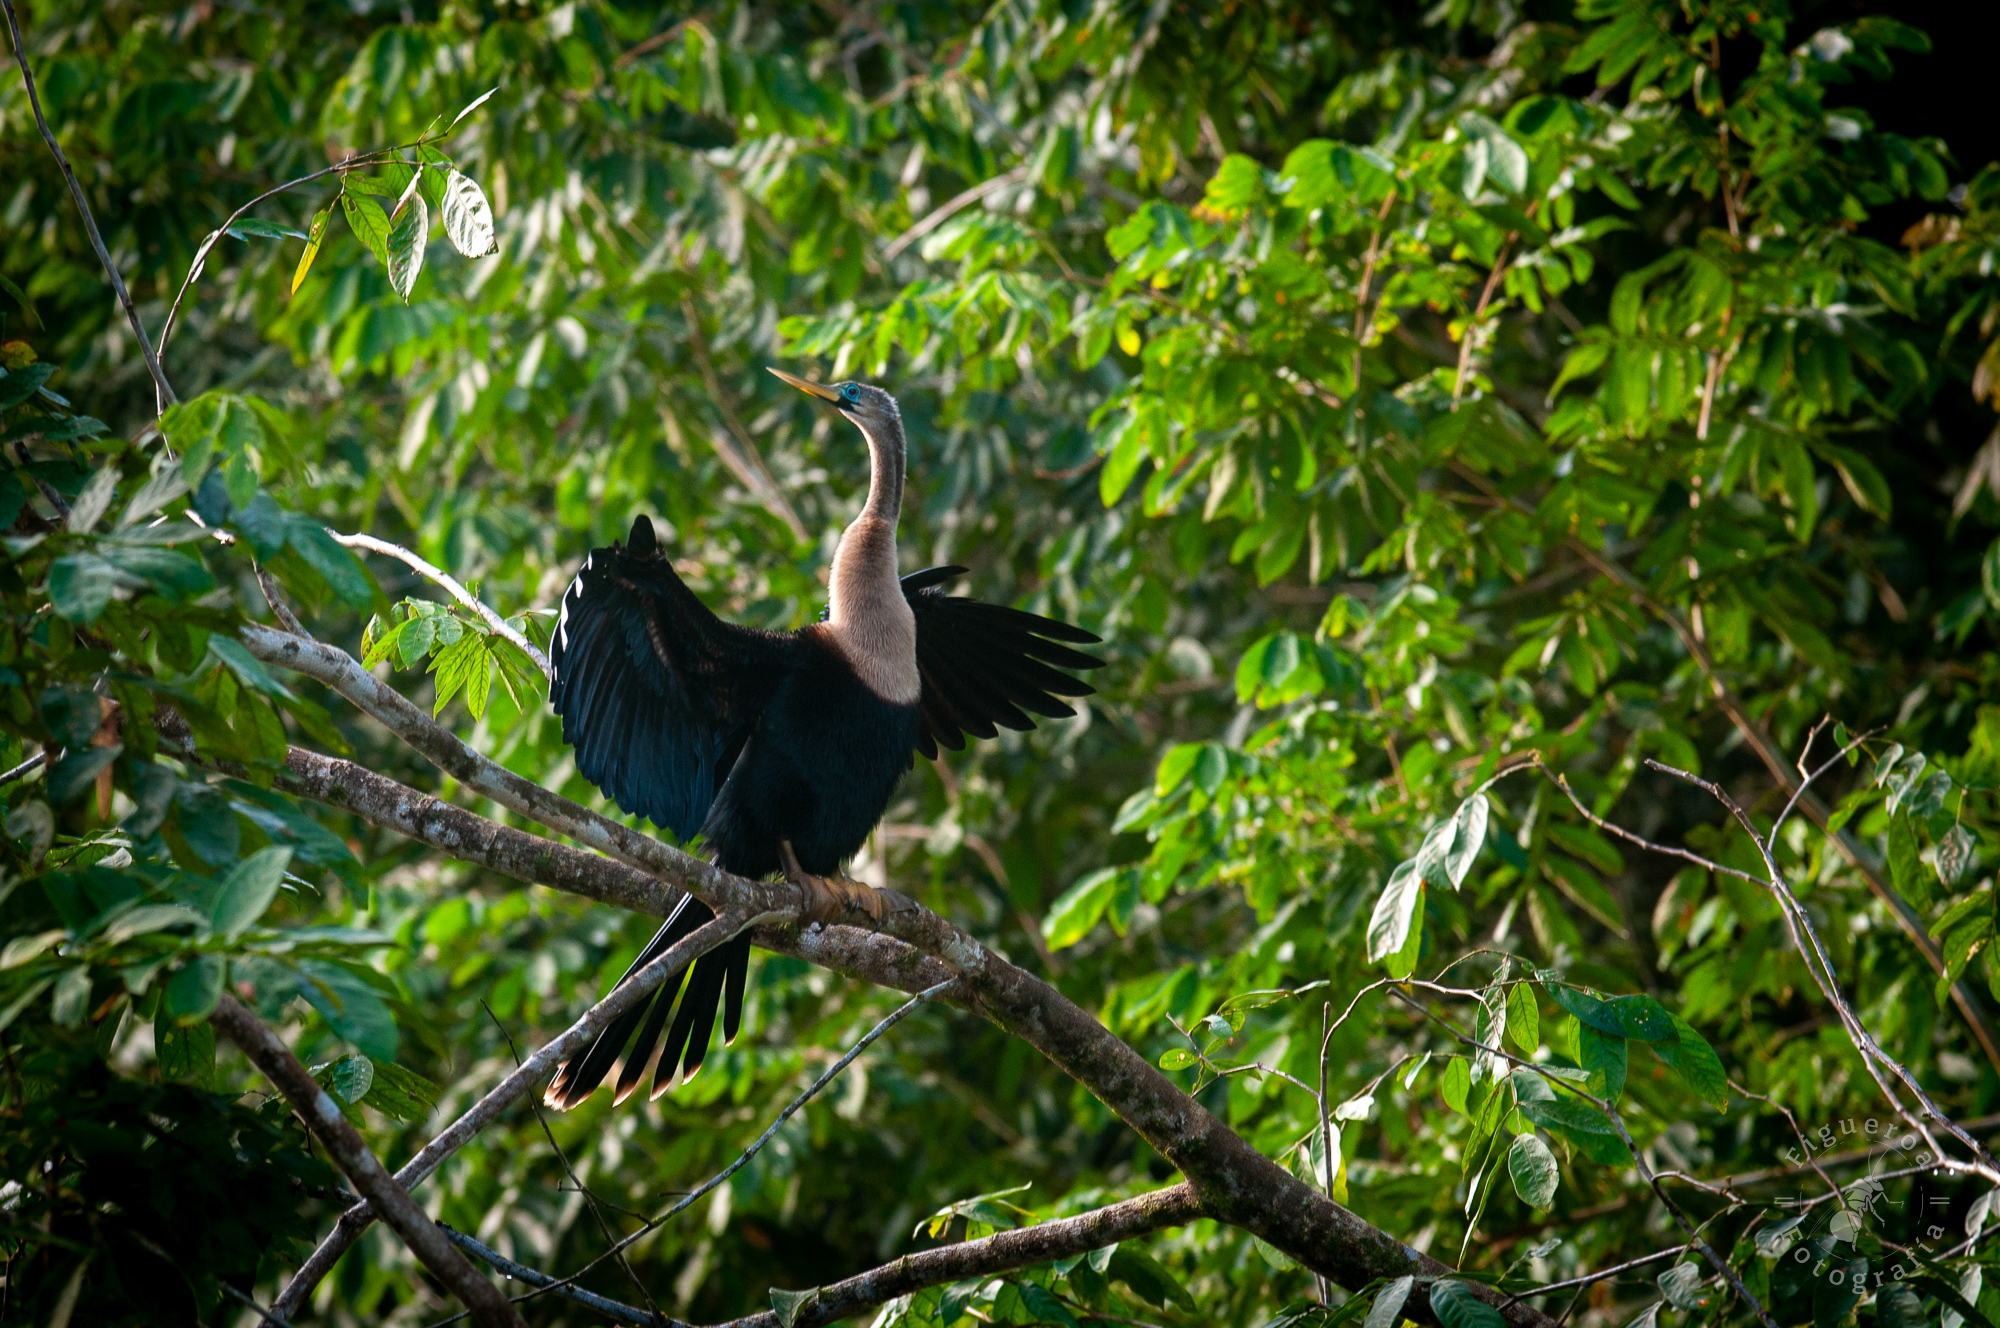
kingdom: Animalia
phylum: Chordata
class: Aves
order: Suliformes
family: Anhingidae
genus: Anhinga
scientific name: Anhinga anhinga
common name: Anhinga
